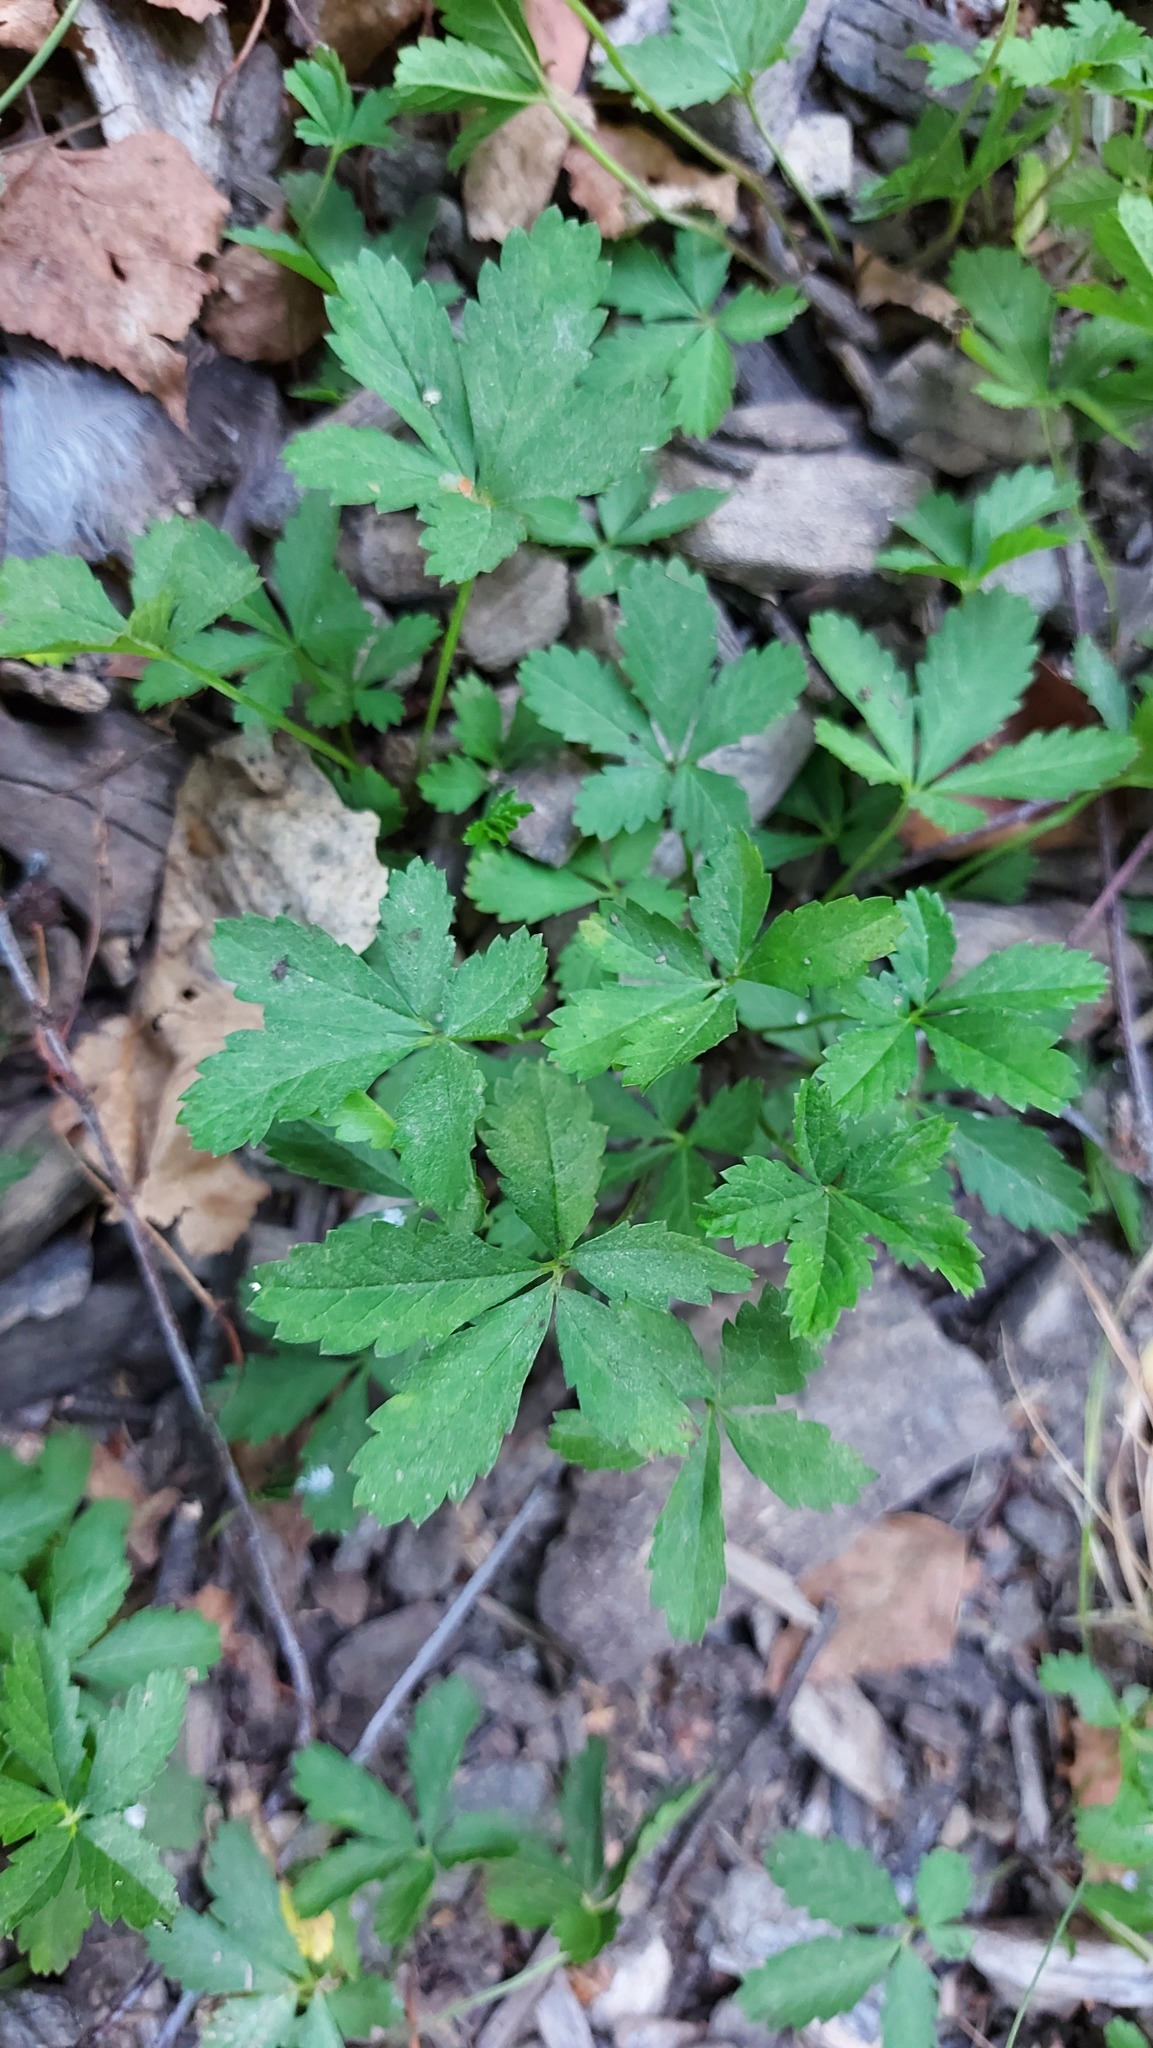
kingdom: Plantae
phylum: Tracheophyta
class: Magnoliopsida
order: Rosales
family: Rosaceae
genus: Potentilla
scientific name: Potentilla reptans
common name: Creeping cinquefoil
